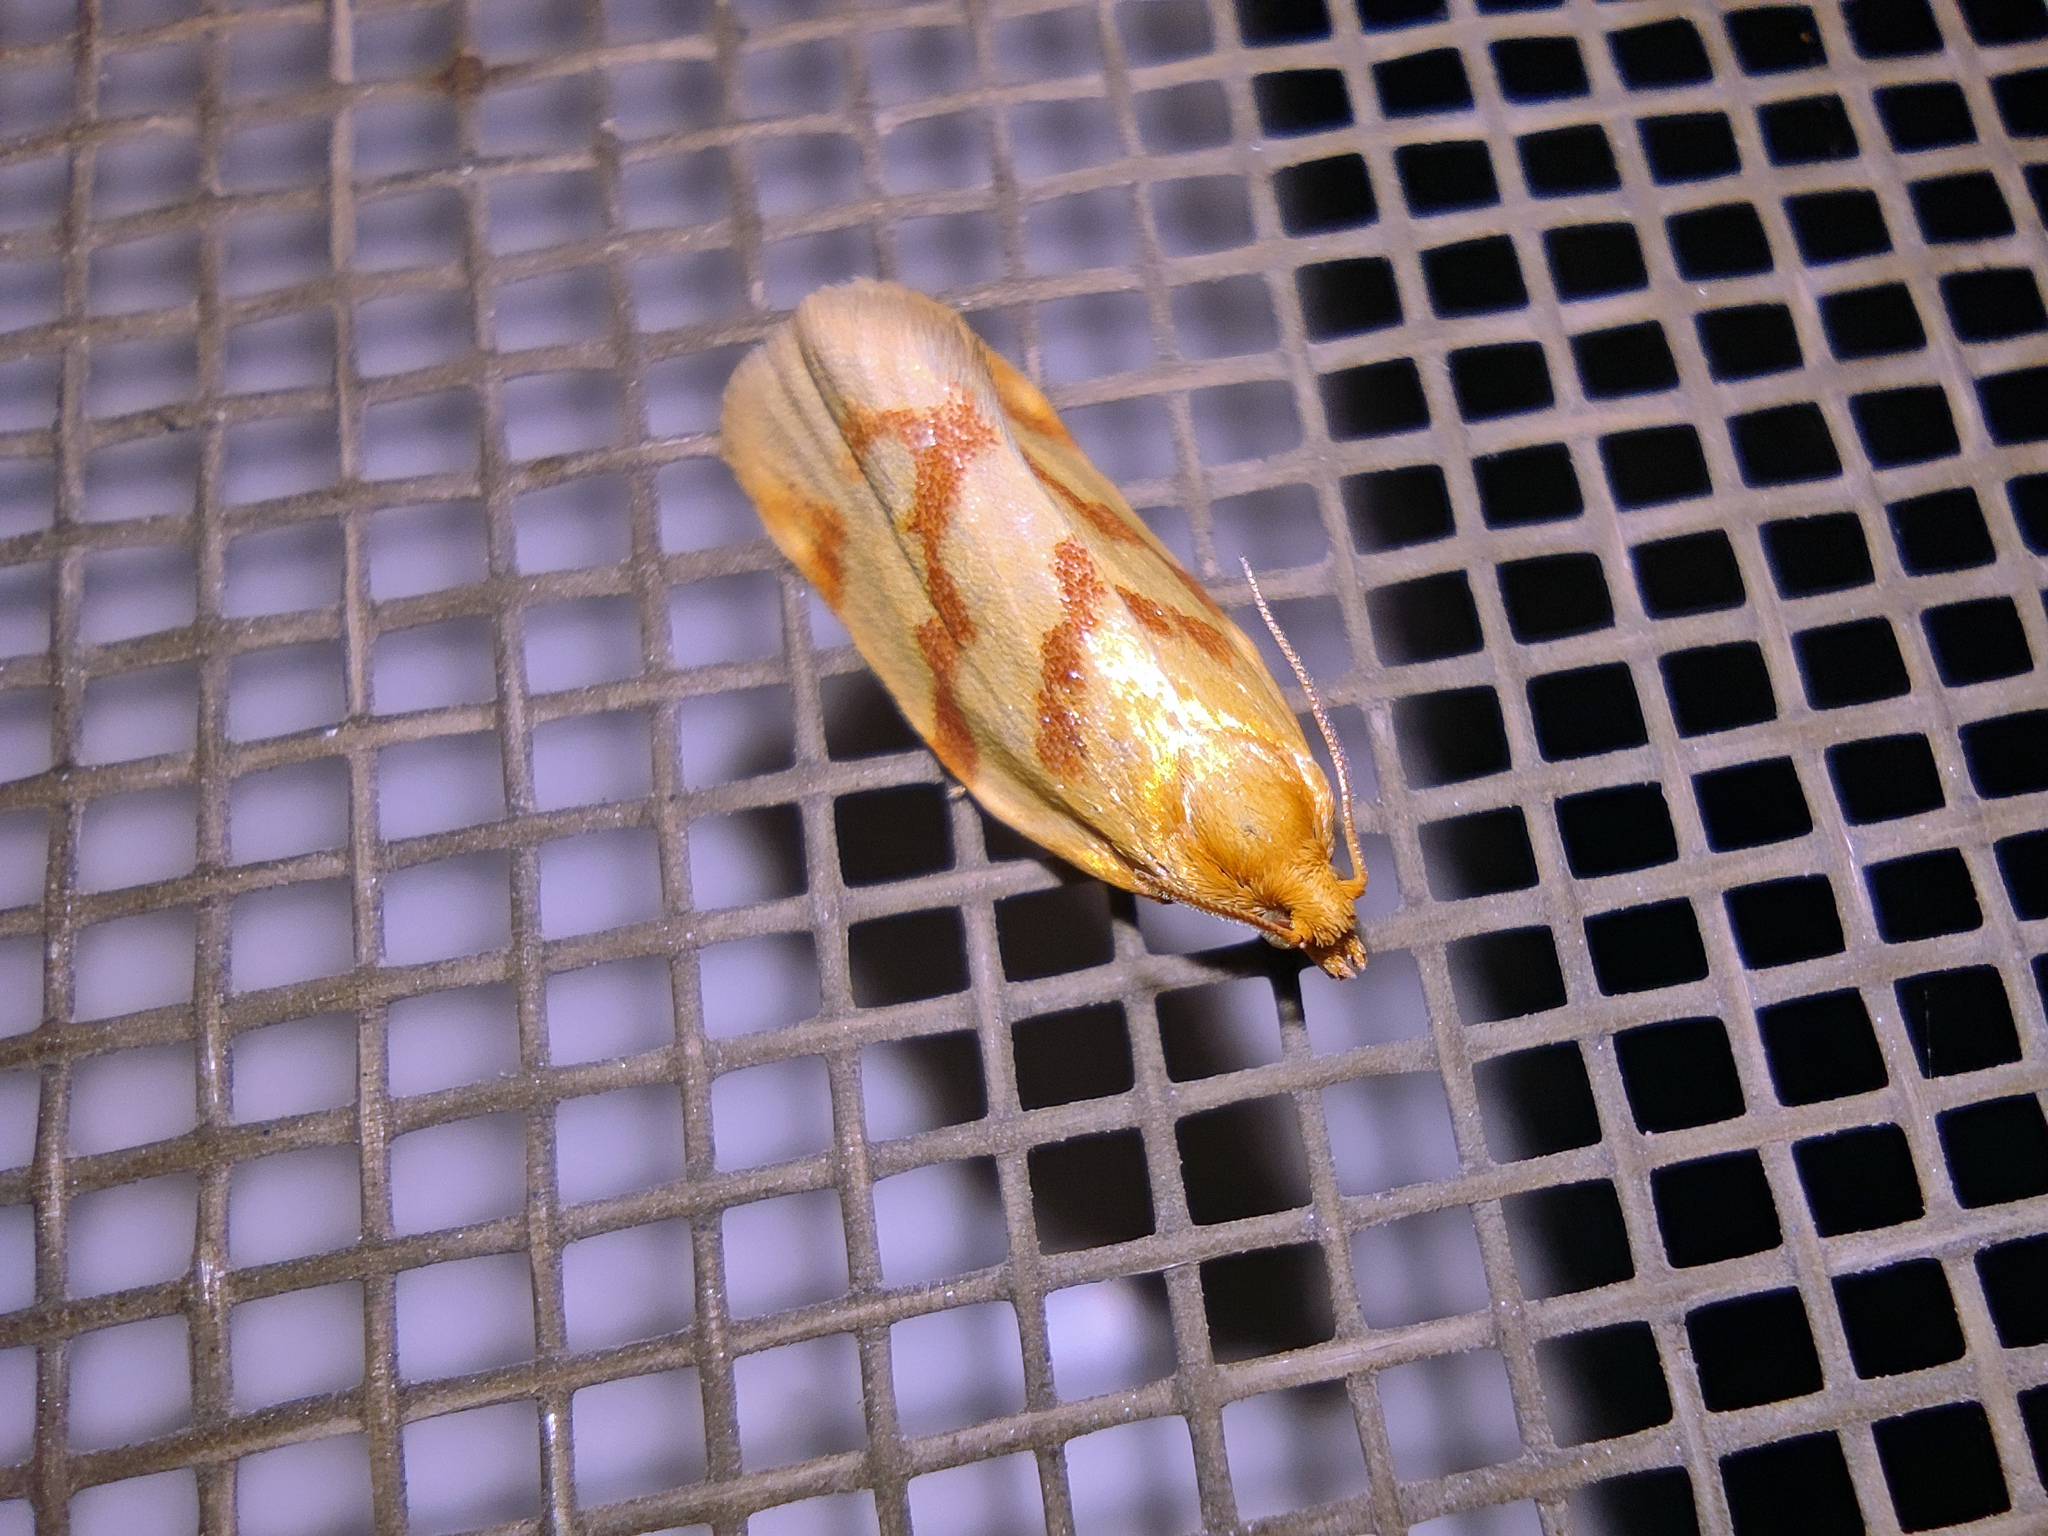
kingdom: Animalia
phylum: Arthropoda
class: Insecta
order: Lepidoptera
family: Tortricidae
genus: Clepsis
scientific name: Clepsis pallidana
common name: Sheep's-bit conch
